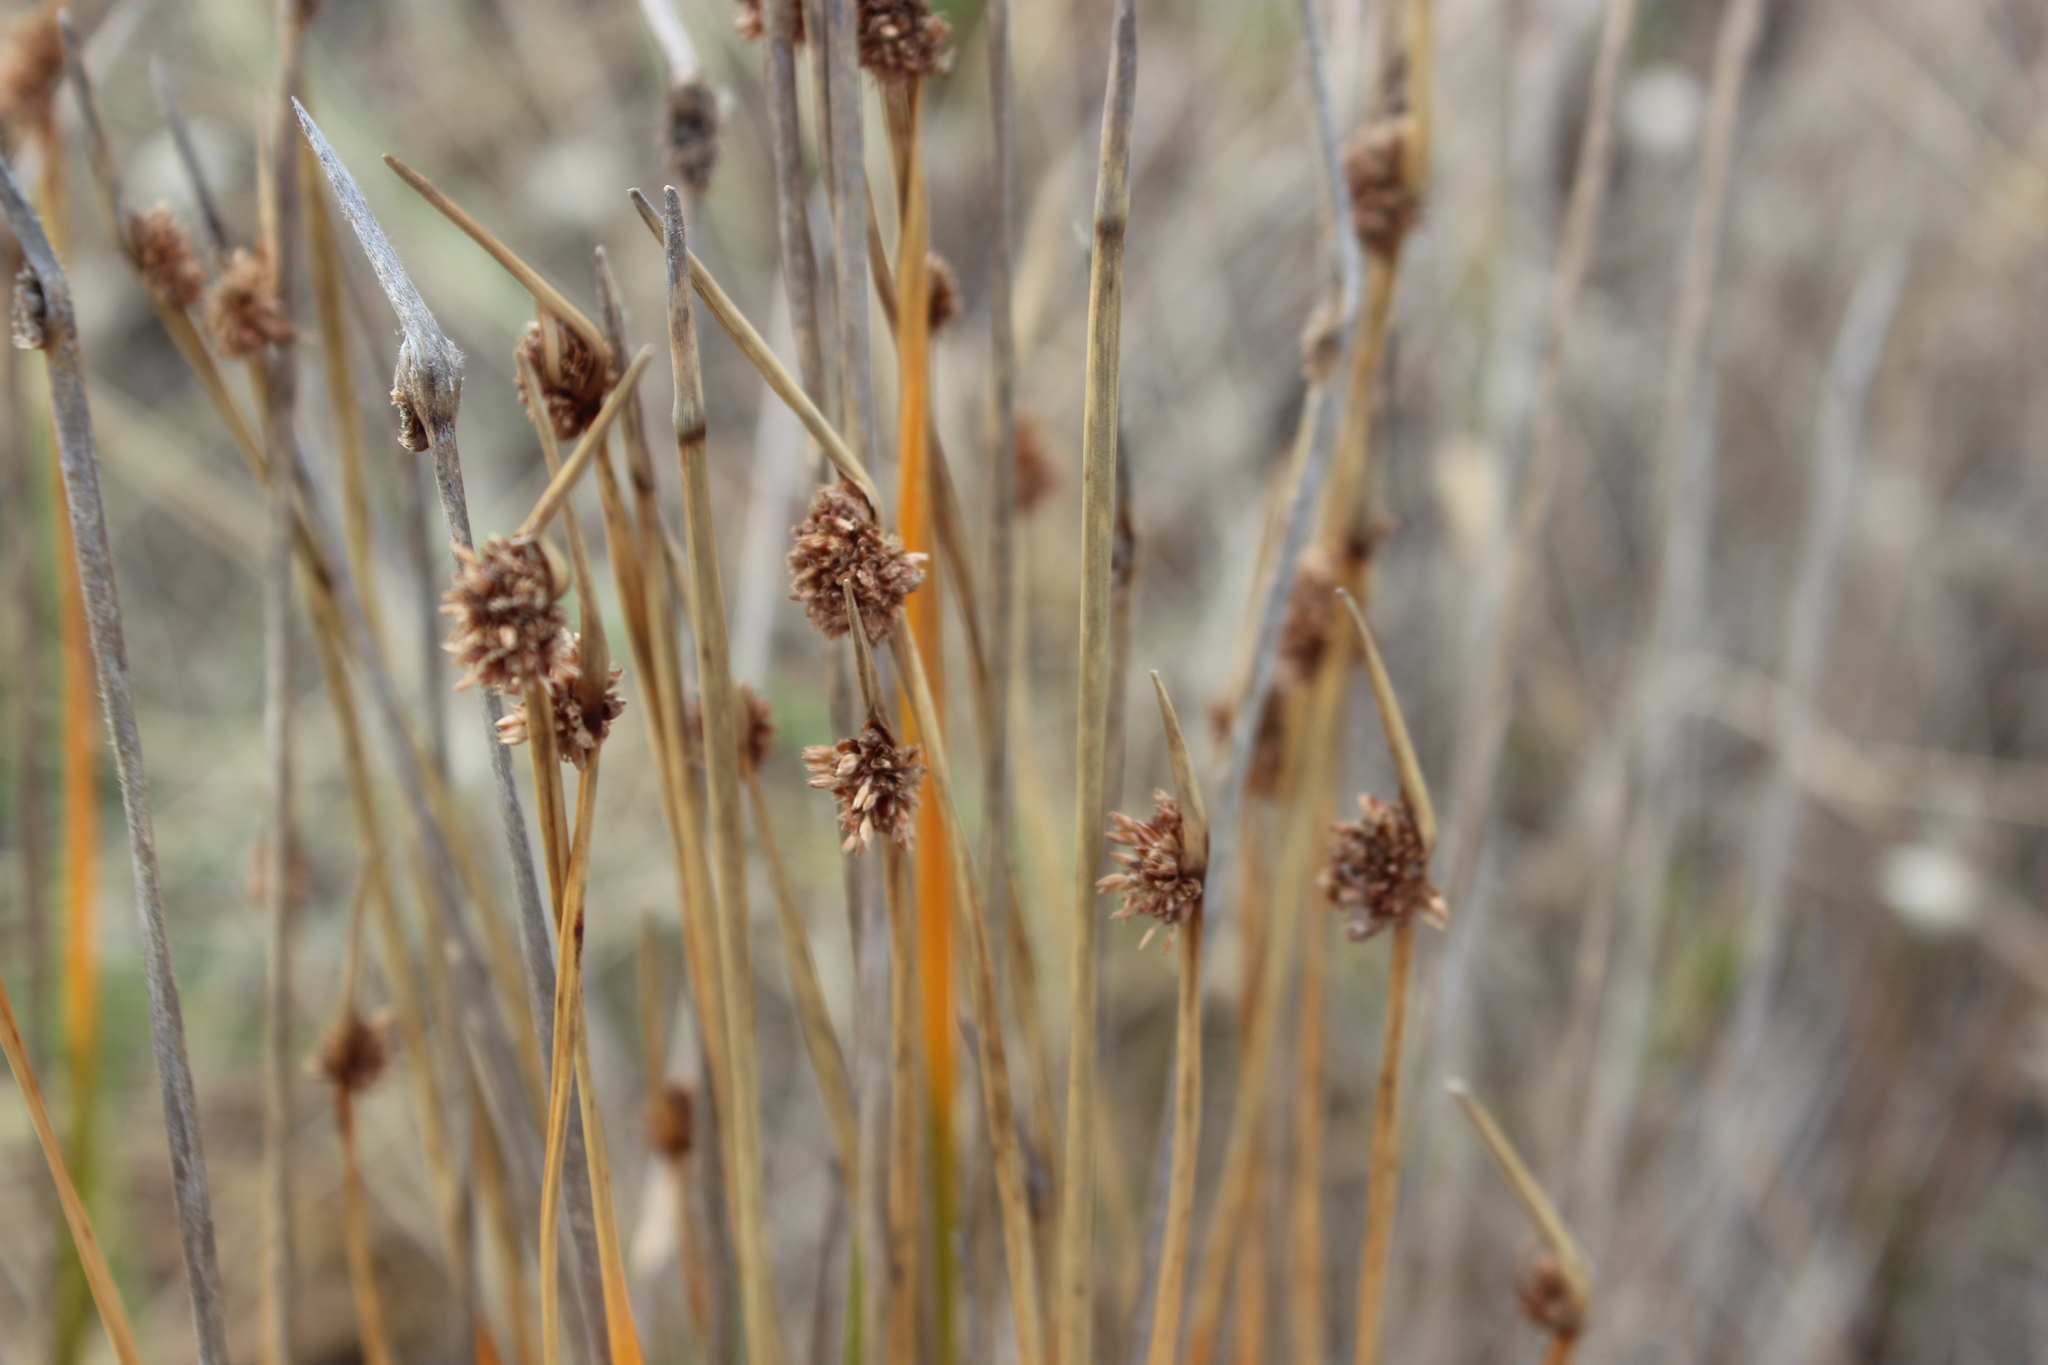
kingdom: Plantae
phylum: Tracheophyta
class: Liliopsida
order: Poales
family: Cyperaceae
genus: Ficinia
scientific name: Ficinia nodosa
